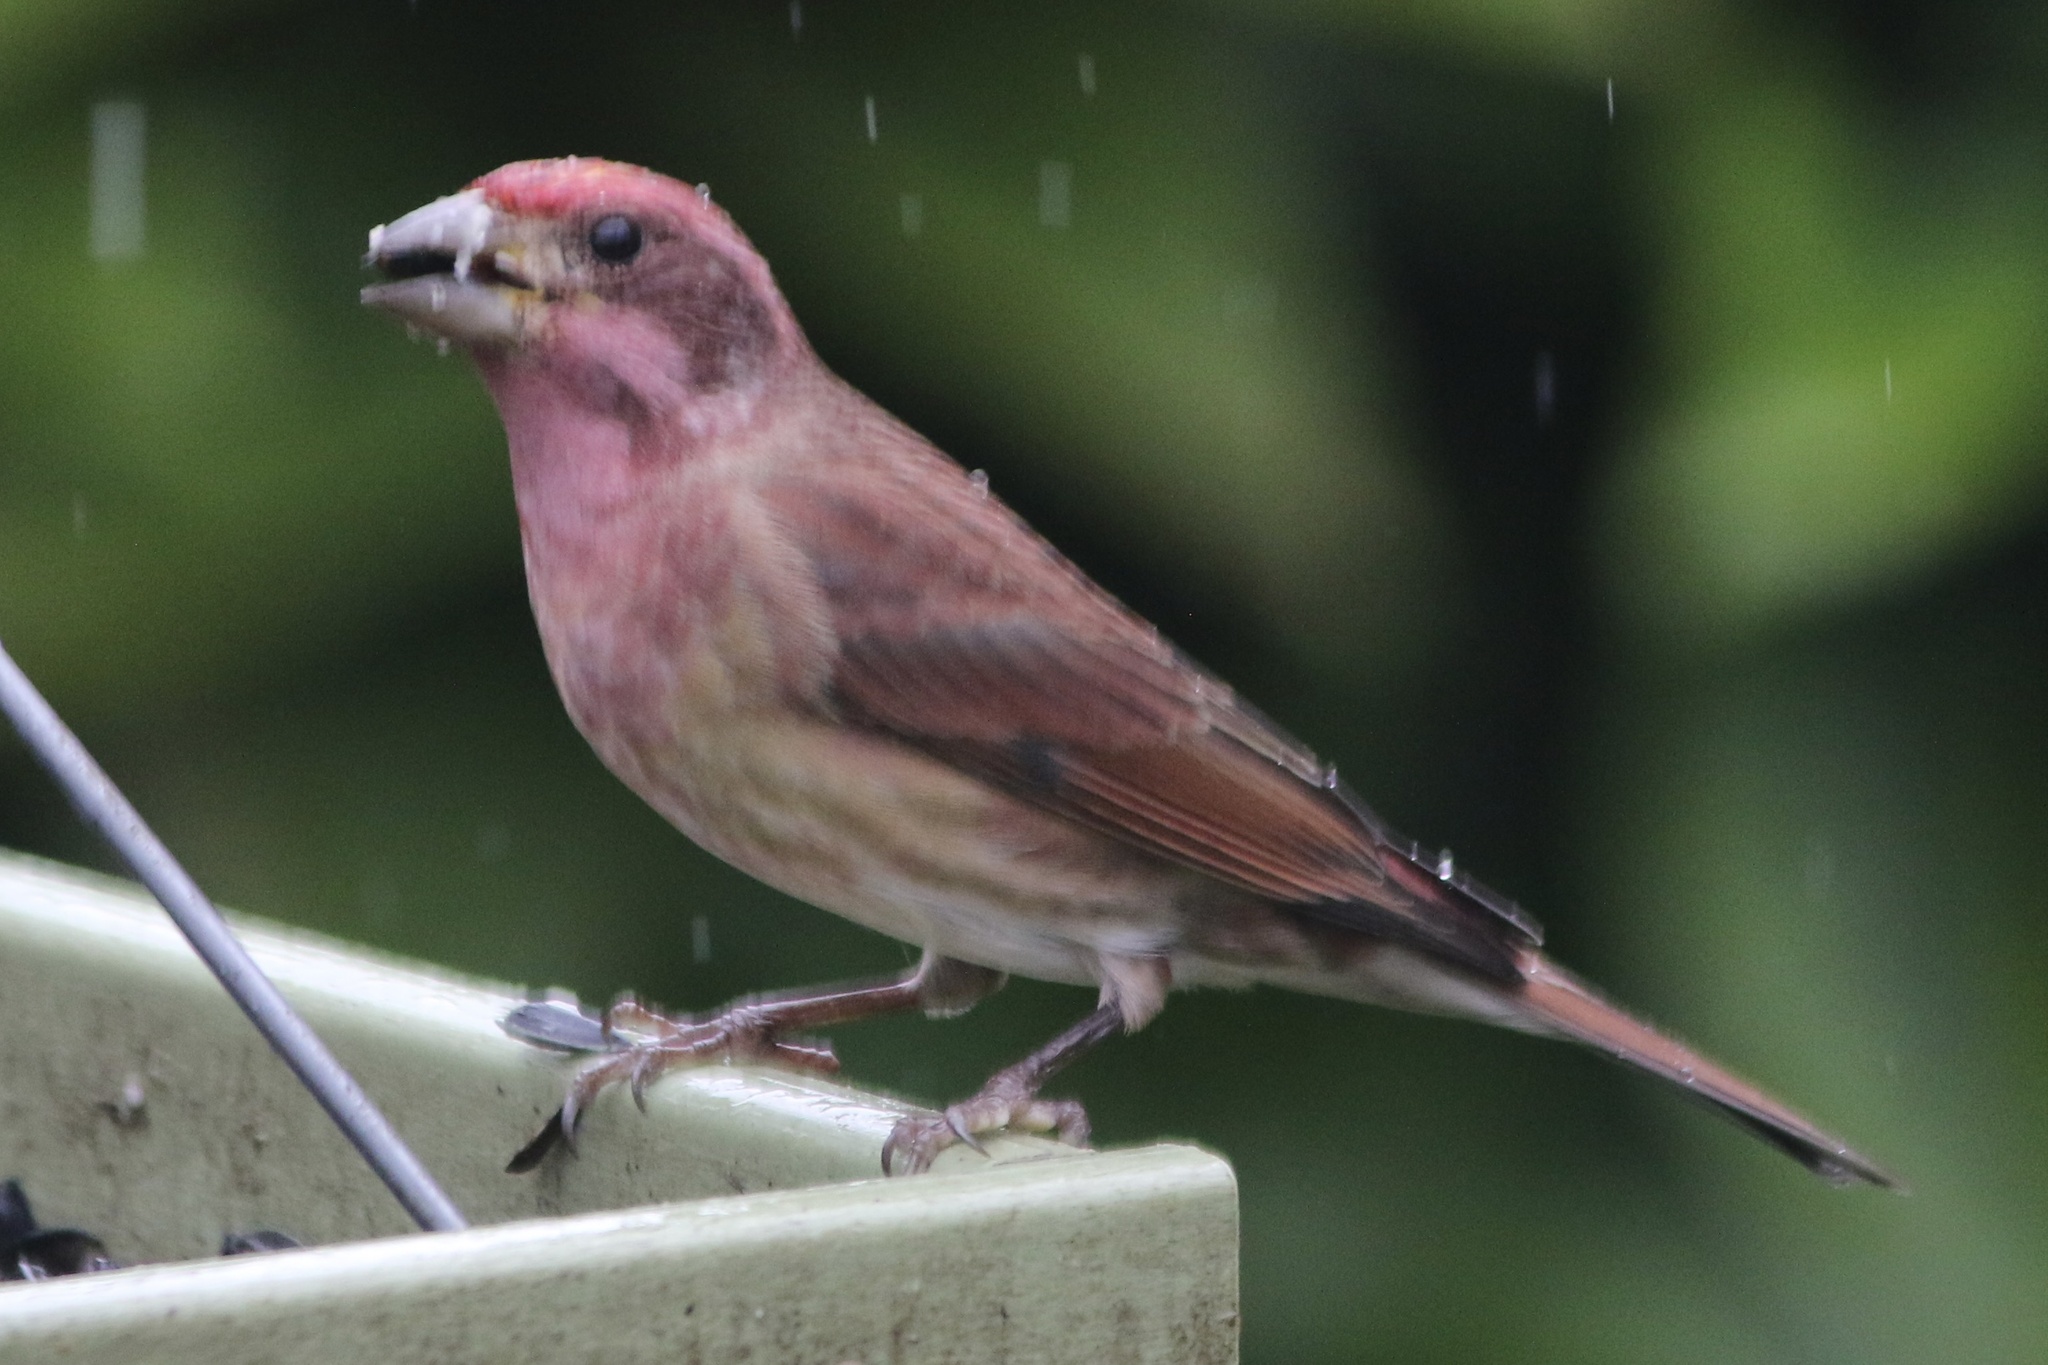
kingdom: Animalia
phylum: Chordata
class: Aves
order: Passeriformes
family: Fringillidae
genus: Haemorhous
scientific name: Haemorhous purpureus
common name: Purple finch
